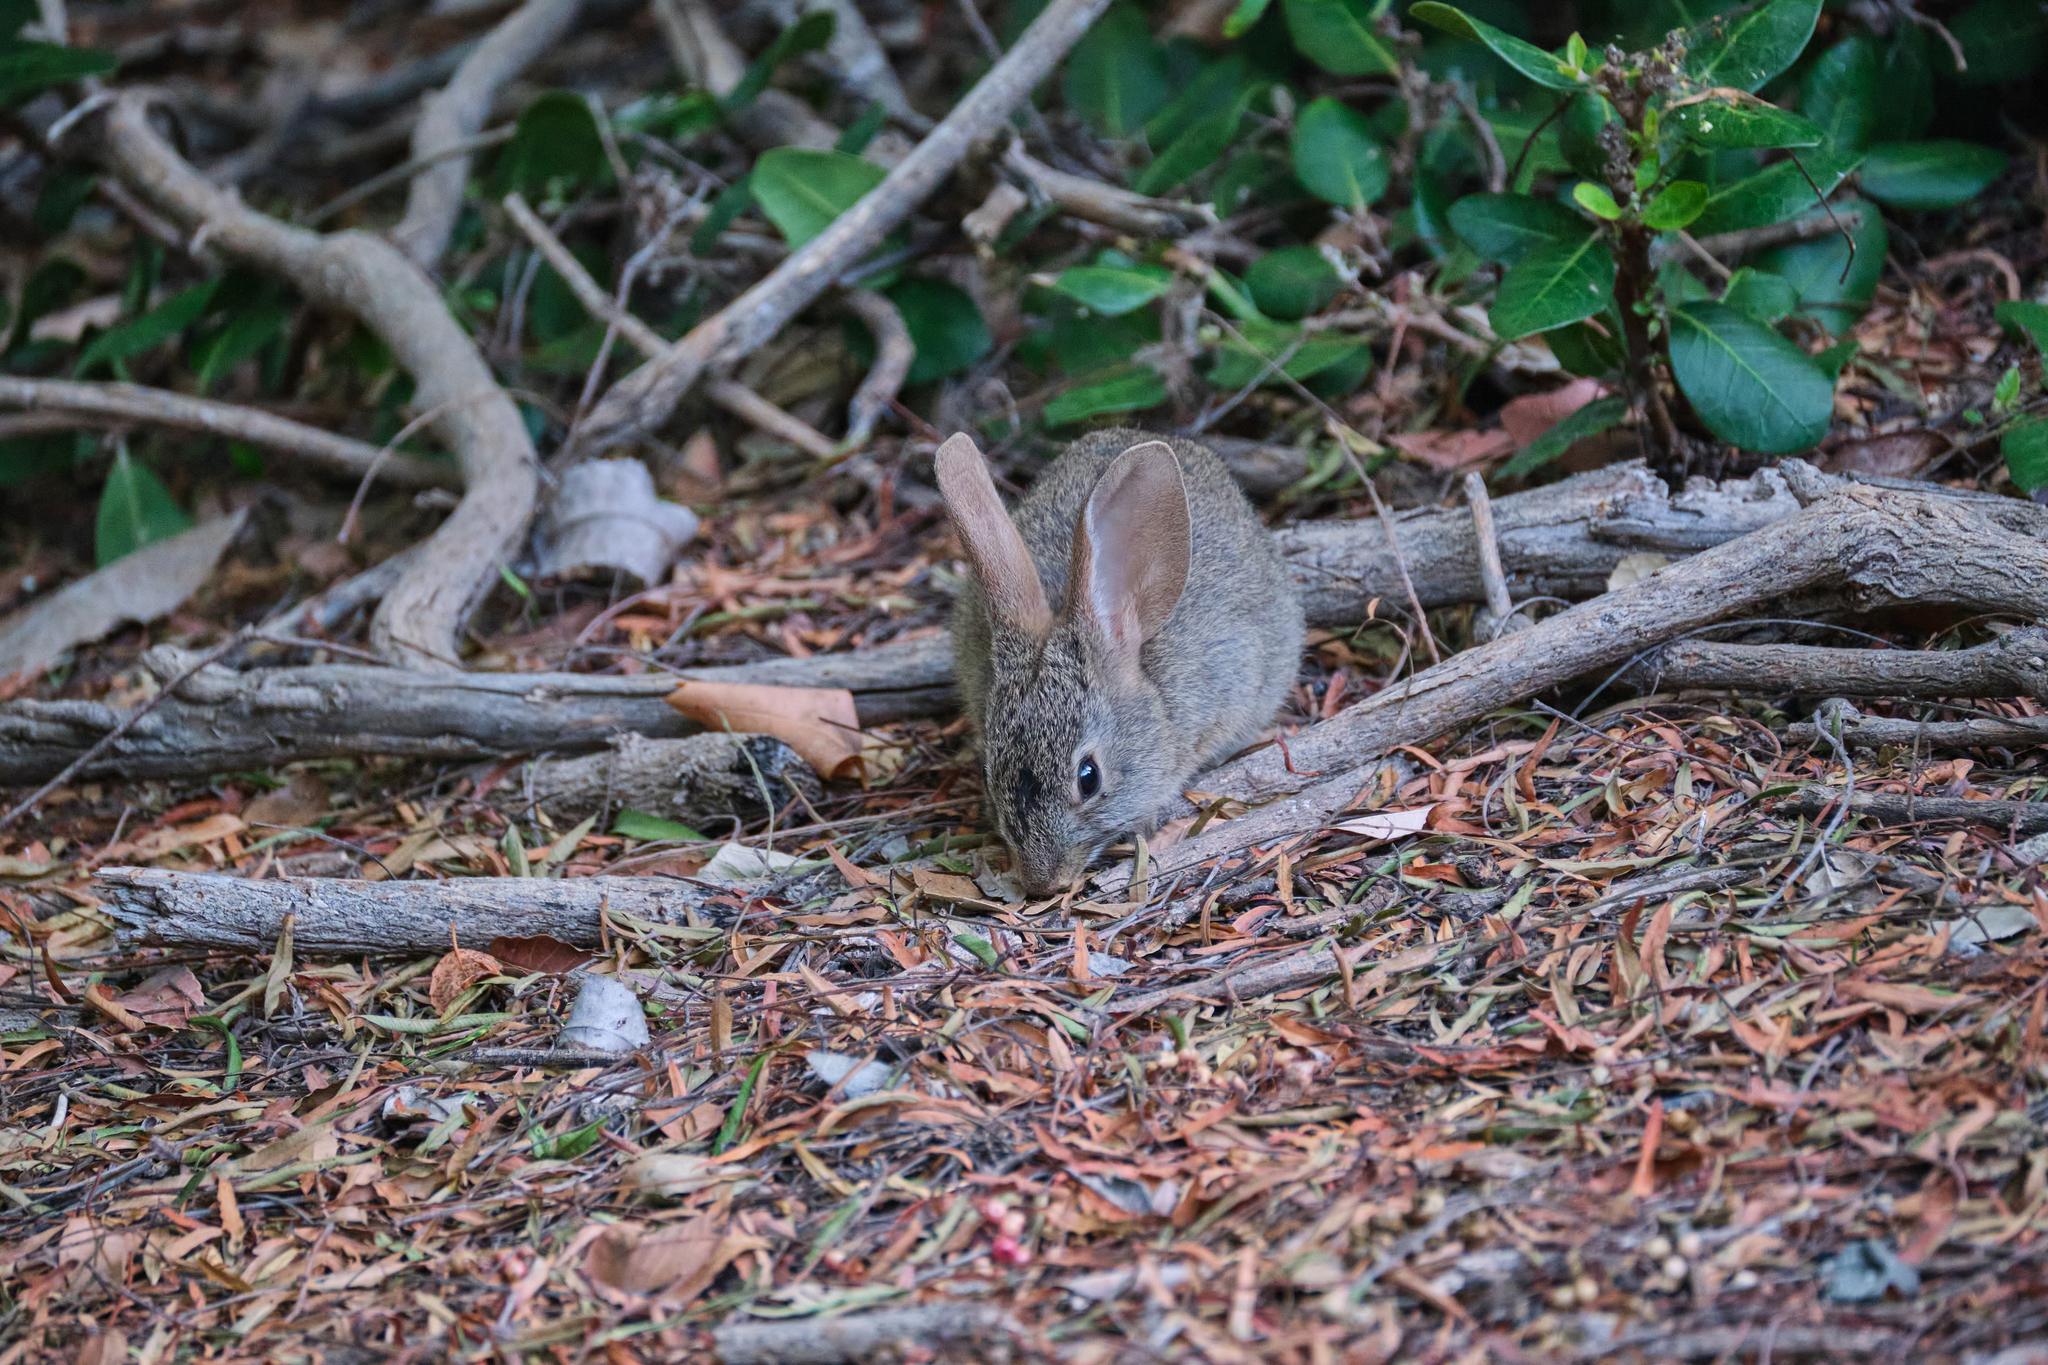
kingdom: Animalia
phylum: Chordata
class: Mammalia
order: Lagomorpha
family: Leporidae
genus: Sylvilagus
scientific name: Sylvilagus bachmani
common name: Brush rabbit
